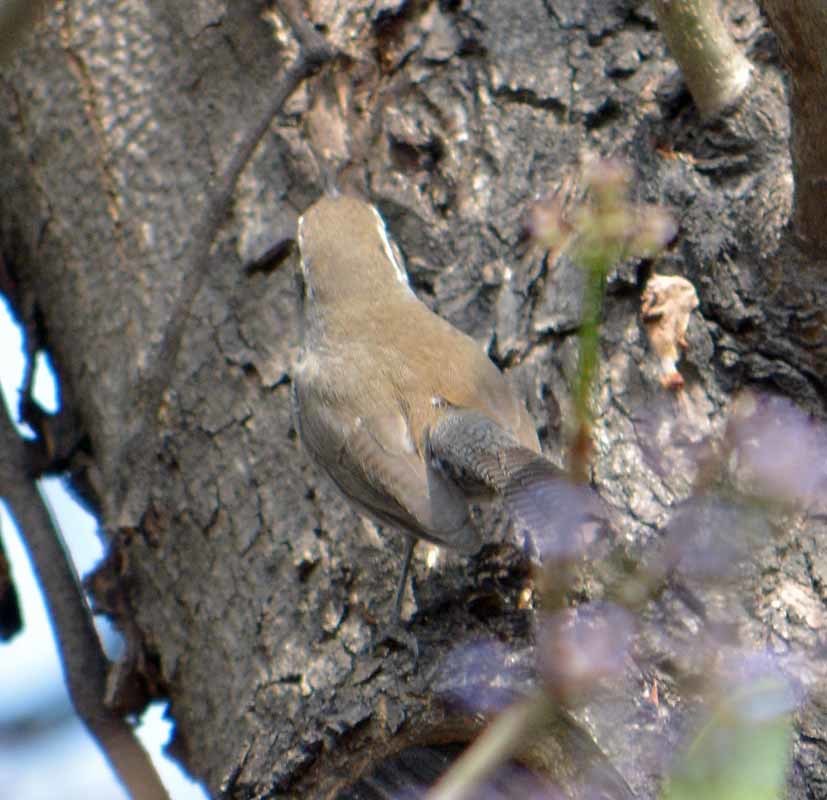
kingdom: Animalia
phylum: Chordata
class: Aves
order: Passeriformes
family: Troglodytidae
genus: Thryomanes
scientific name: Thryomanes bewickii
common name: Bewick's wren
